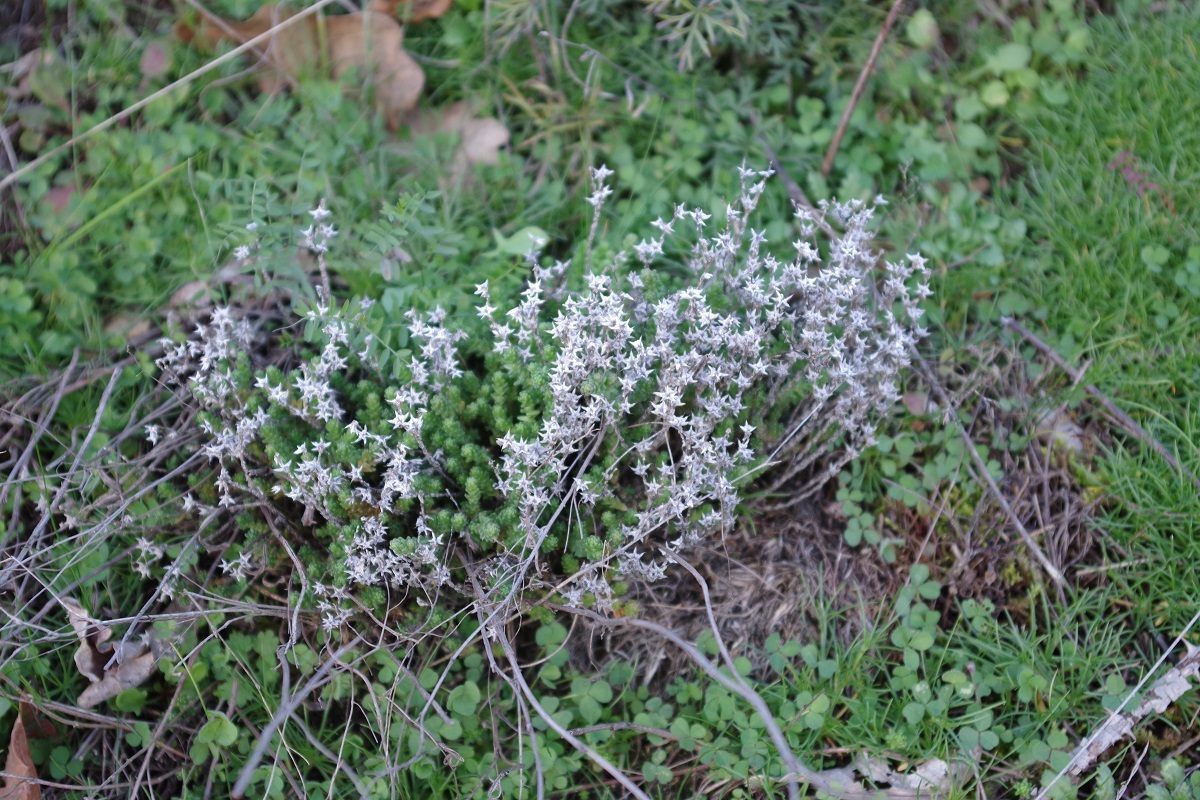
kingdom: Plantae
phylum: Tracheophyta
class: Magnoliopsida
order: Saxifragales
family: Crassulaceae
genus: Sedum
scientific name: Sedum acre
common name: Biting stonecrop
